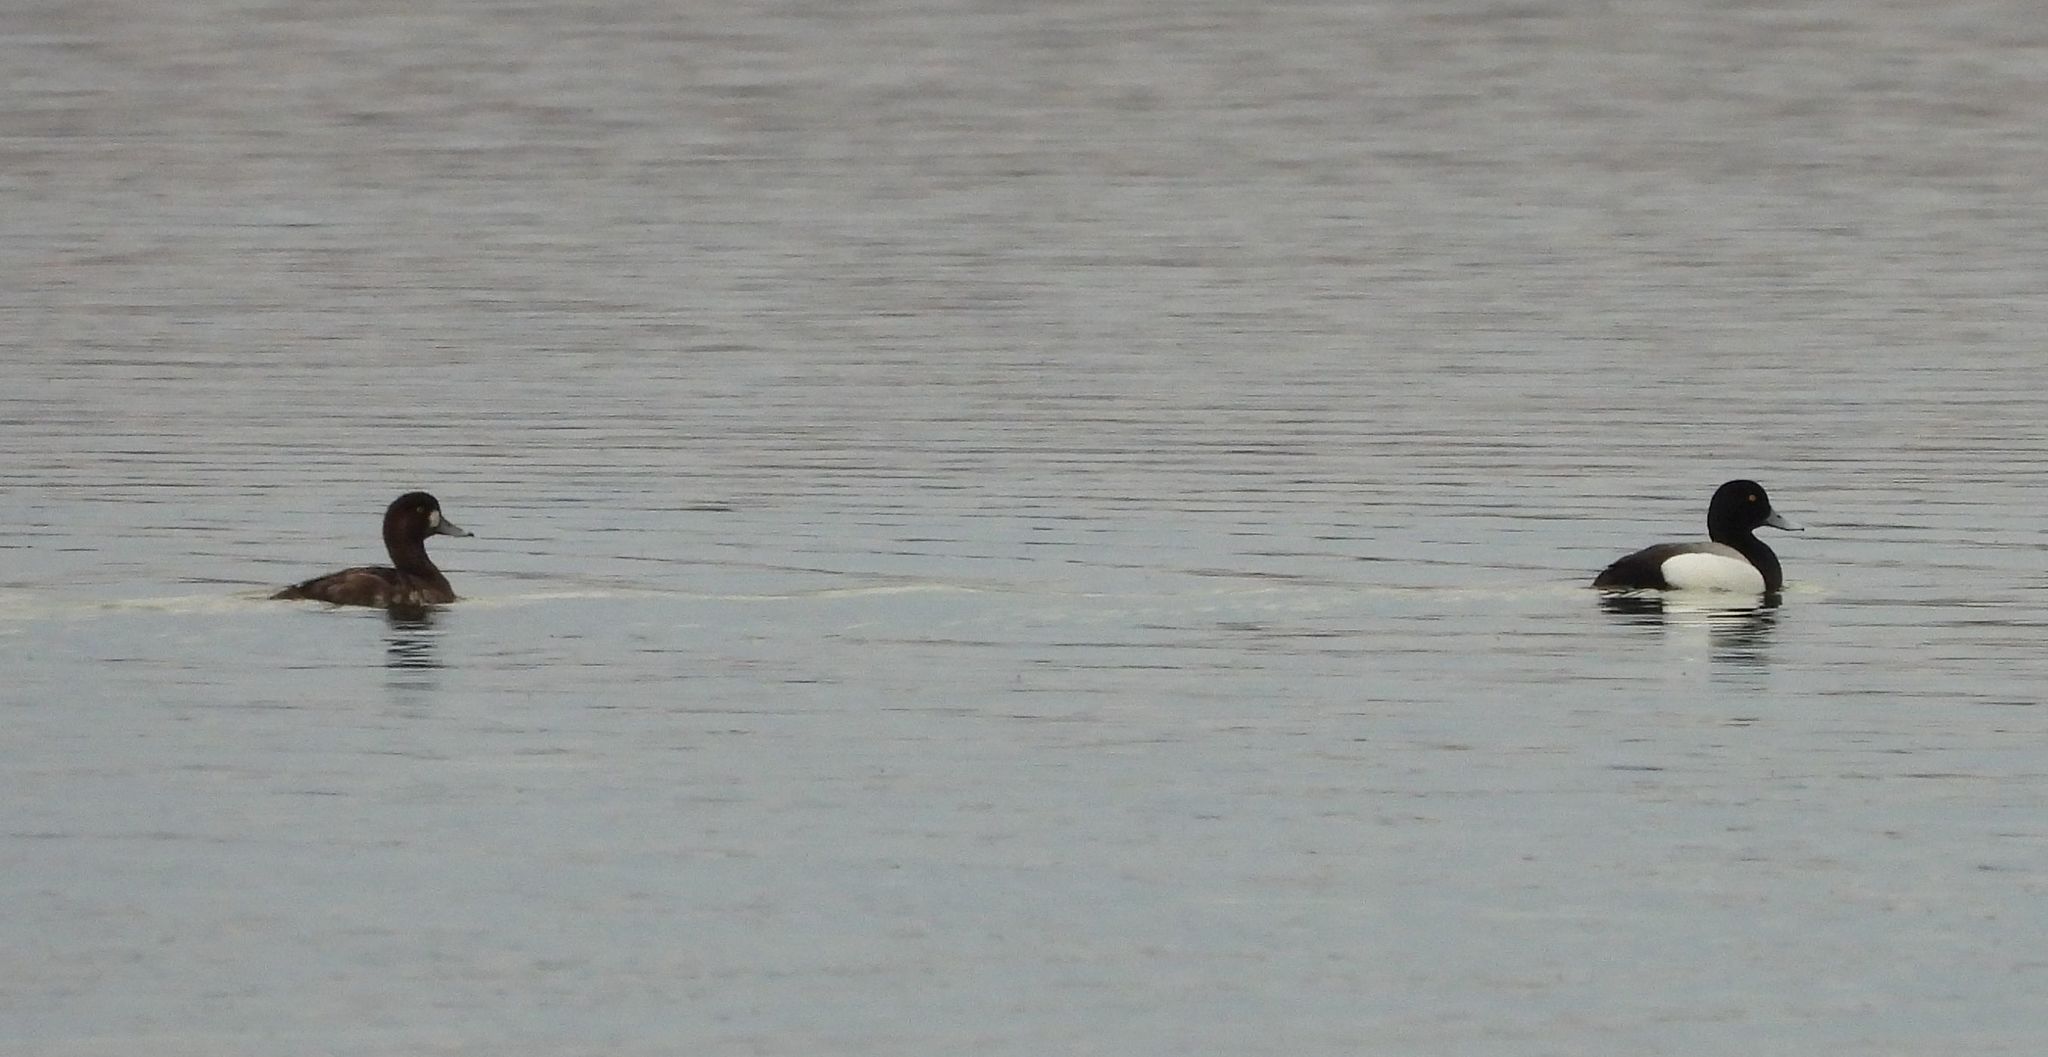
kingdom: Animalia
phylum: Chordata
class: Aves
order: Anseriformes
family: Anatidae
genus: Aythya
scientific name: Aythya marila
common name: Greater scaup
